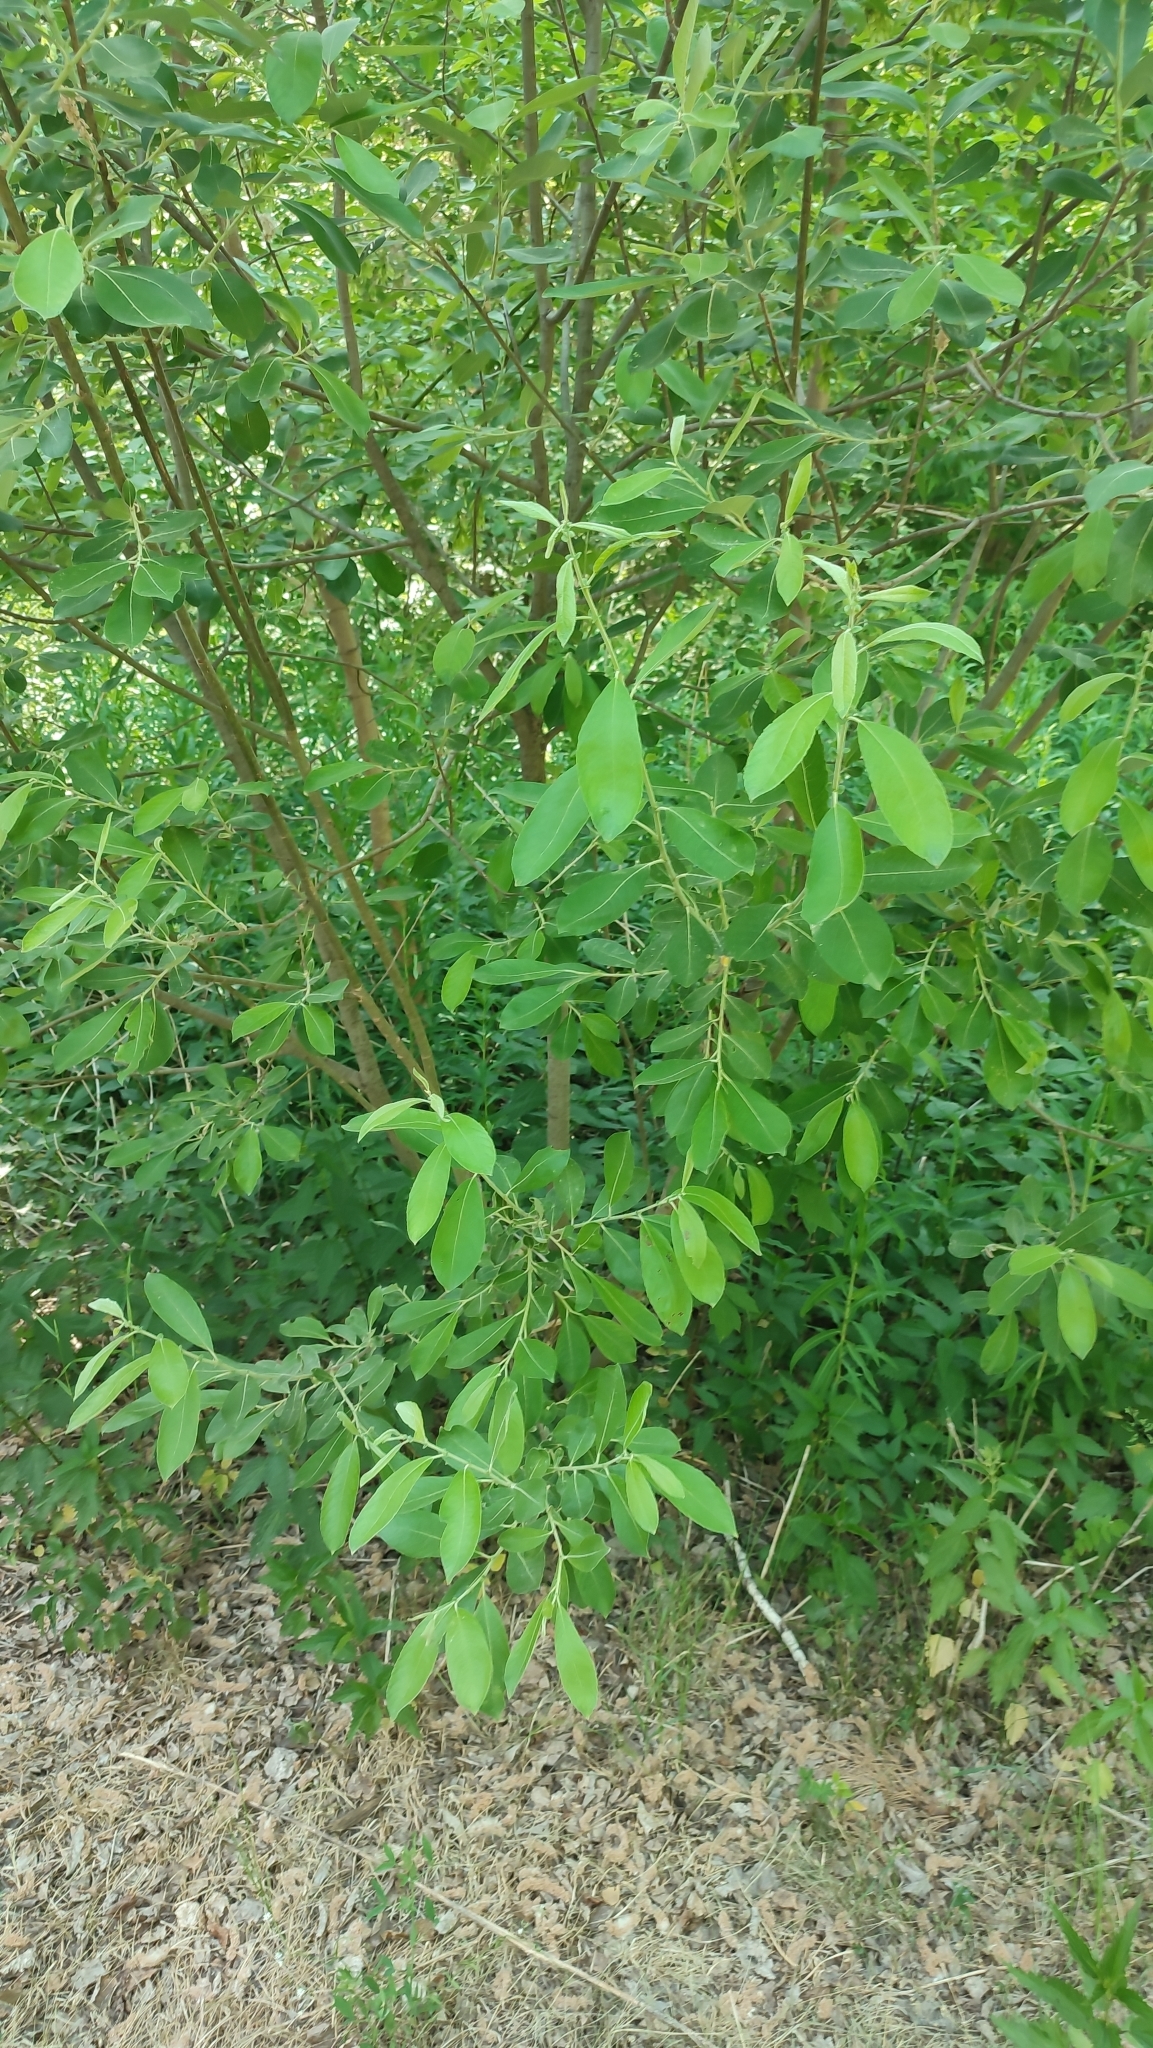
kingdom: Plantae
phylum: Tracheophyta
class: Magnoliopsida
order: Malpighiales
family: Salicaceae
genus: Salix
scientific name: Salix cinerea
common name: Common sallow
